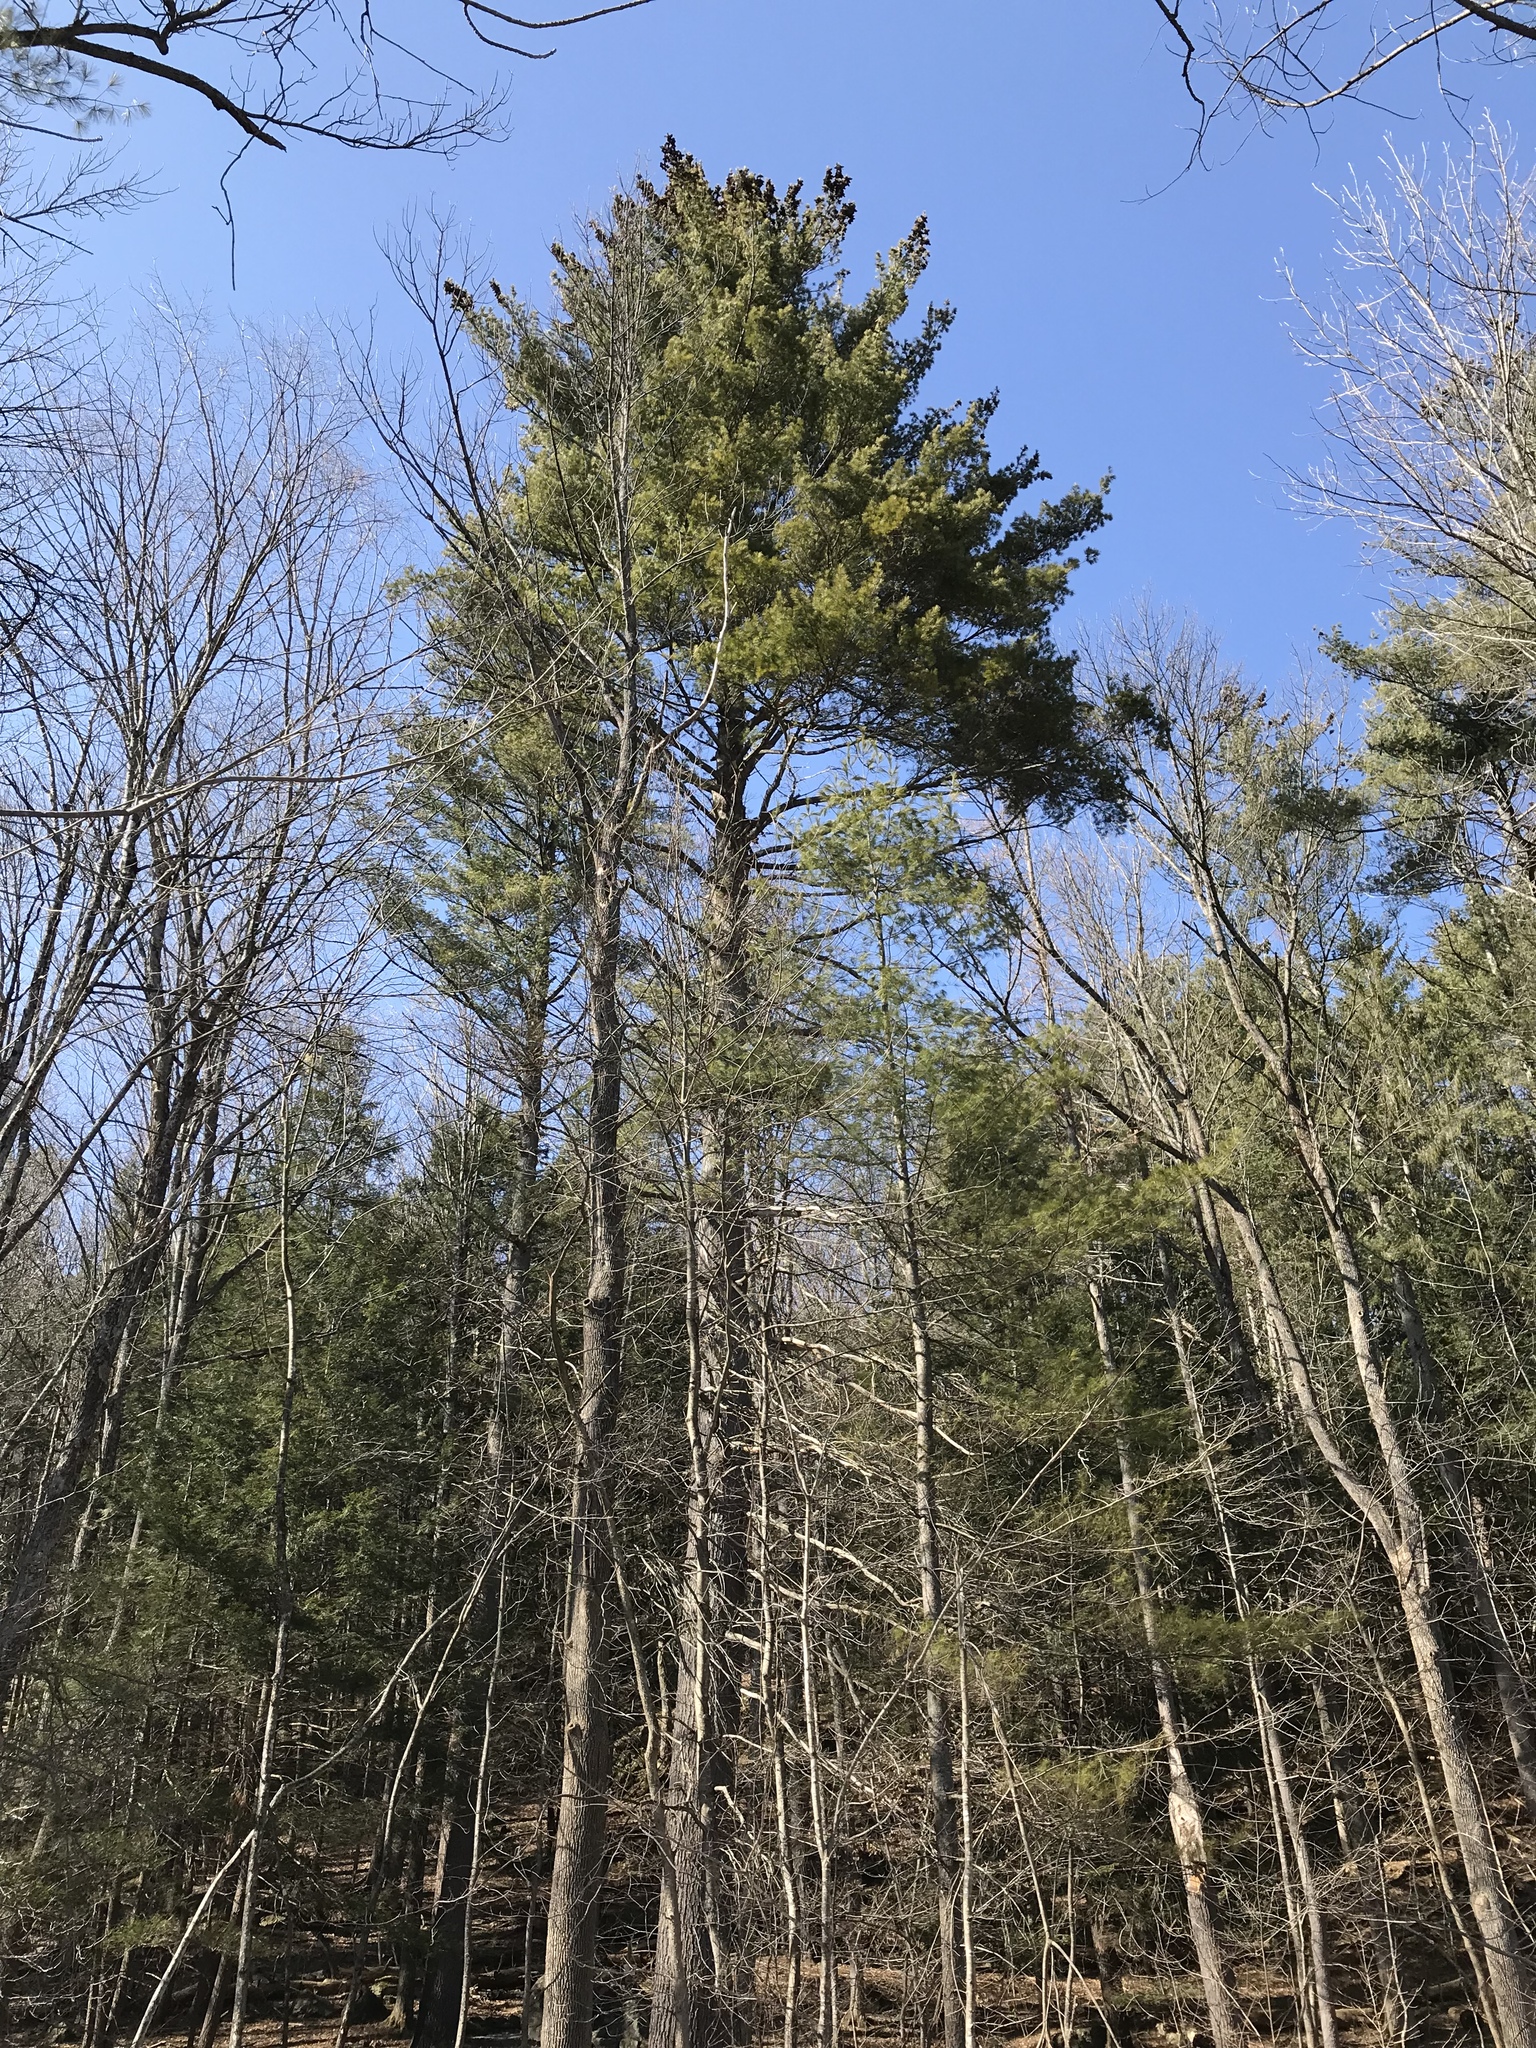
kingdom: Plantae
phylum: Tracheophyta
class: Pinopsida
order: Pinales
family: Pinaceae
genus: Pinus
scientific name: Pinus strobus
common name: Weymouth pine
